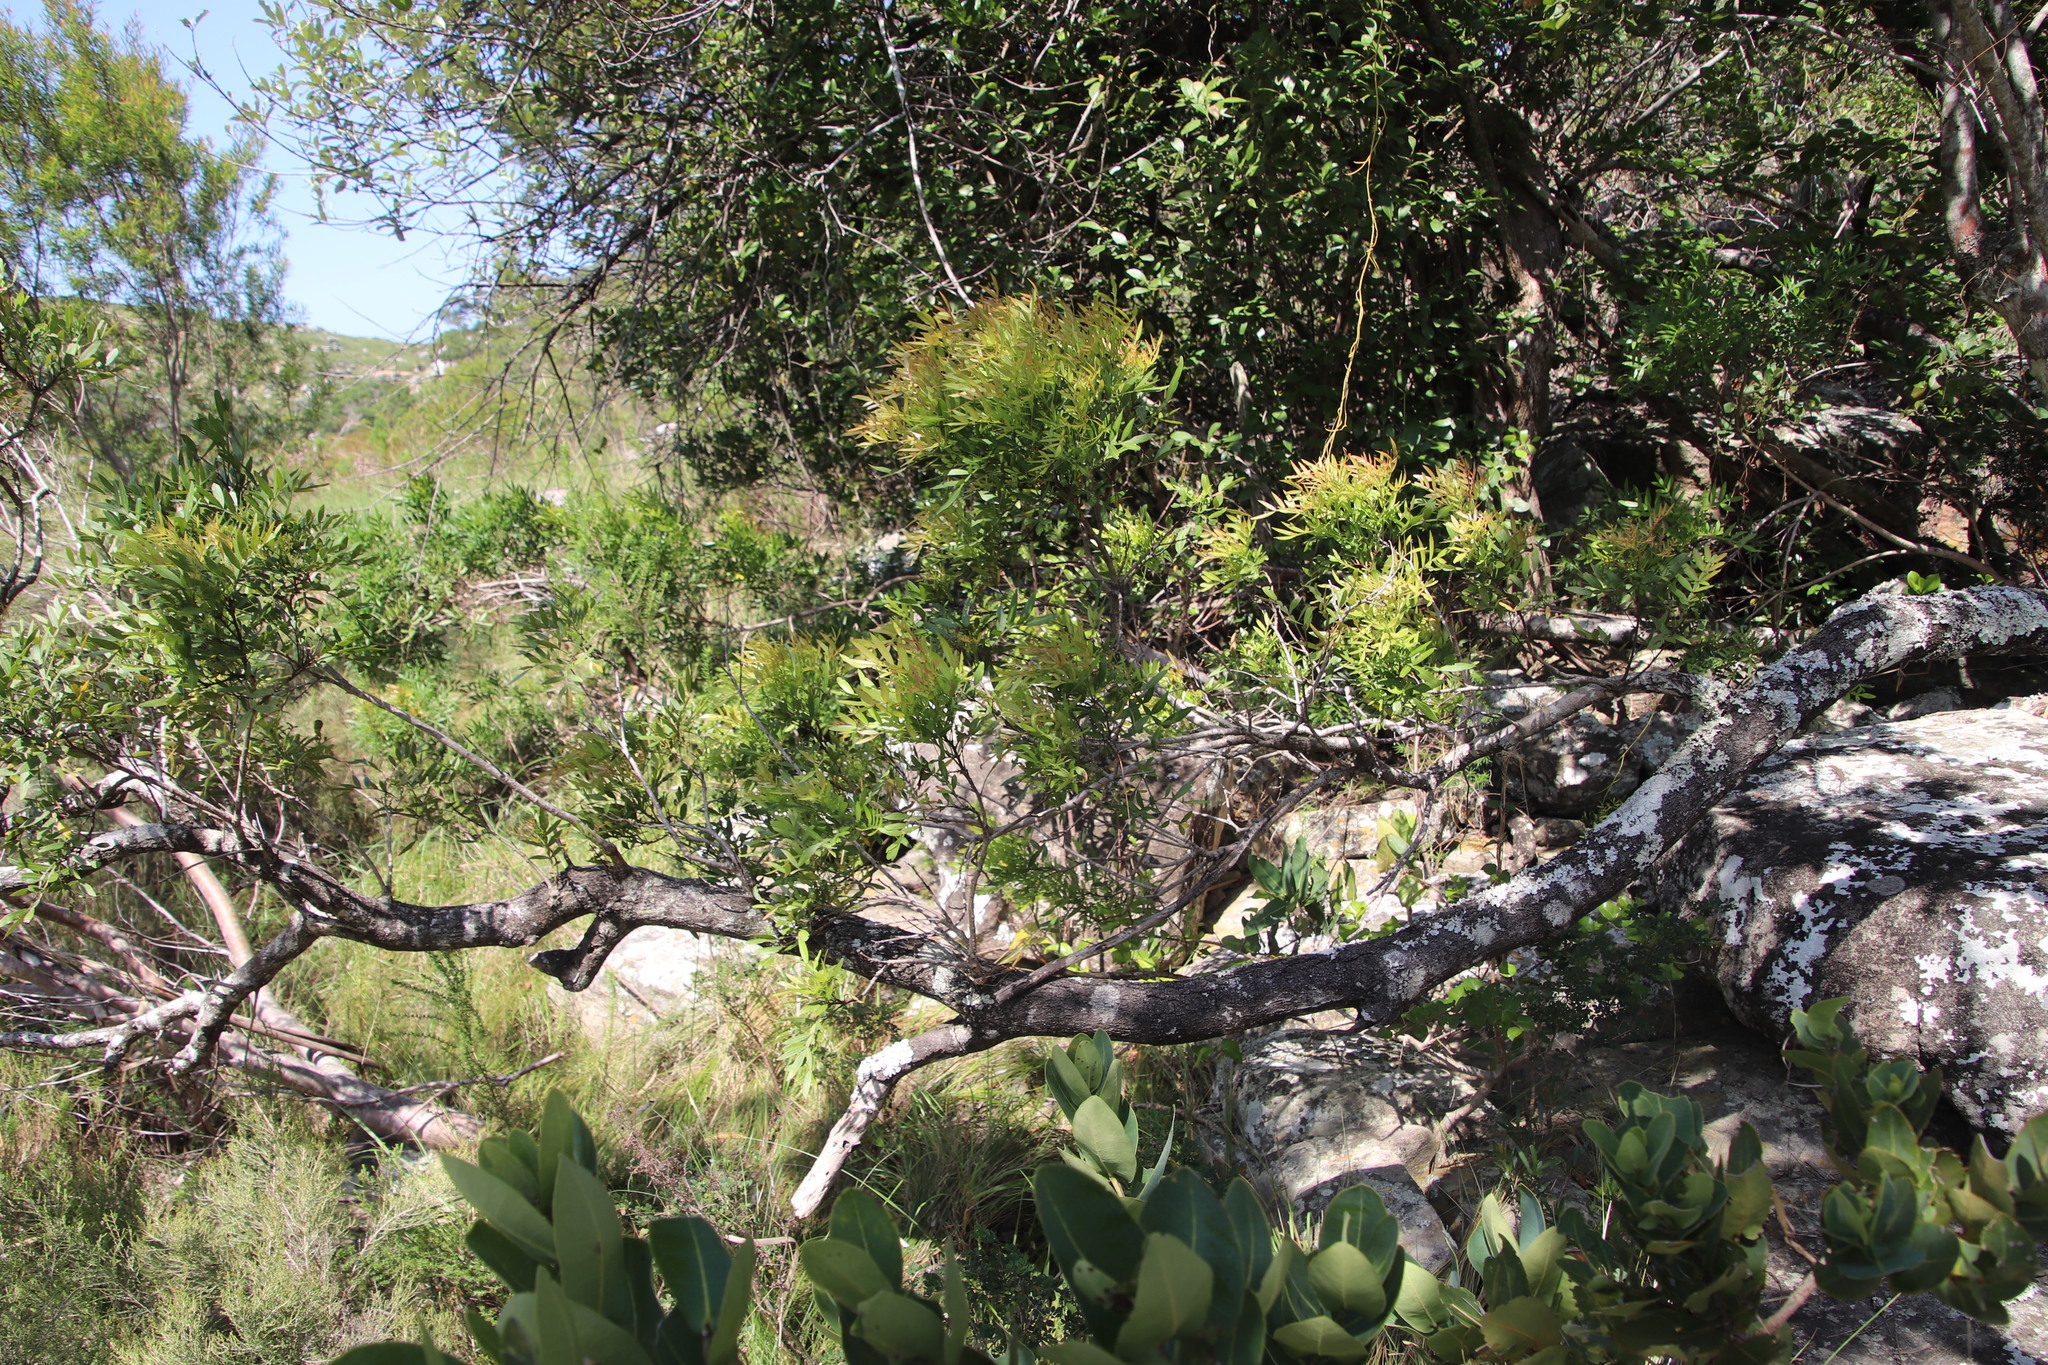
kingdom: Plantae
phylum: Tracheophyta
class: Magnoliopsida
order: Sapindales
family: Anacardiaceae
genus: Loxostylis
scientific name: Loxostylis alata
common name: Wild peppertree
